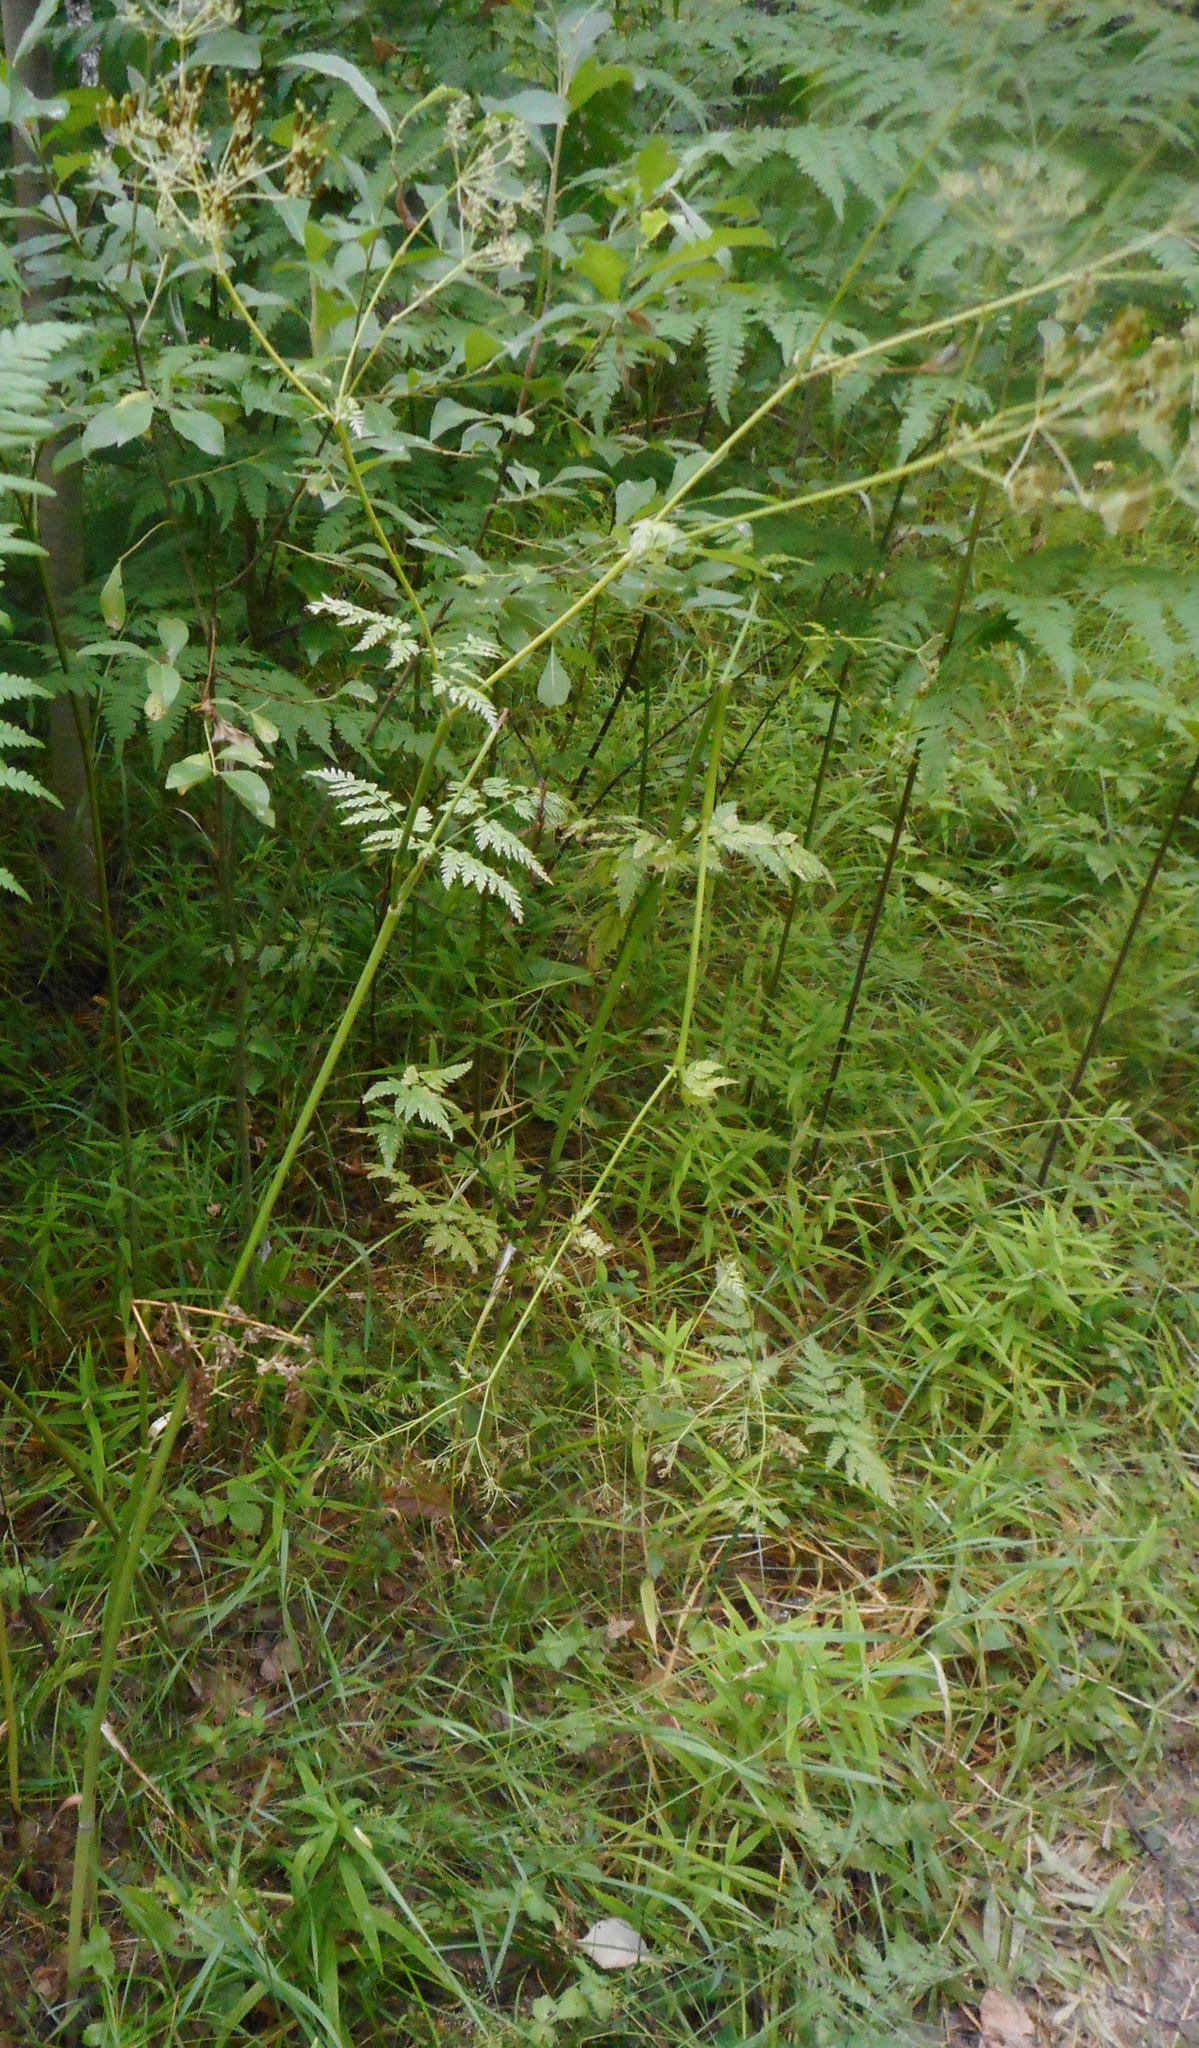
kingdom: Plantae
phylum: Tracheophyta
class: Magnoliopsida
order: Apiales
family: Apiaceae
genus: Anthriscus
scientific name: Anthriscus sylvestris
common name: Cow parsley
